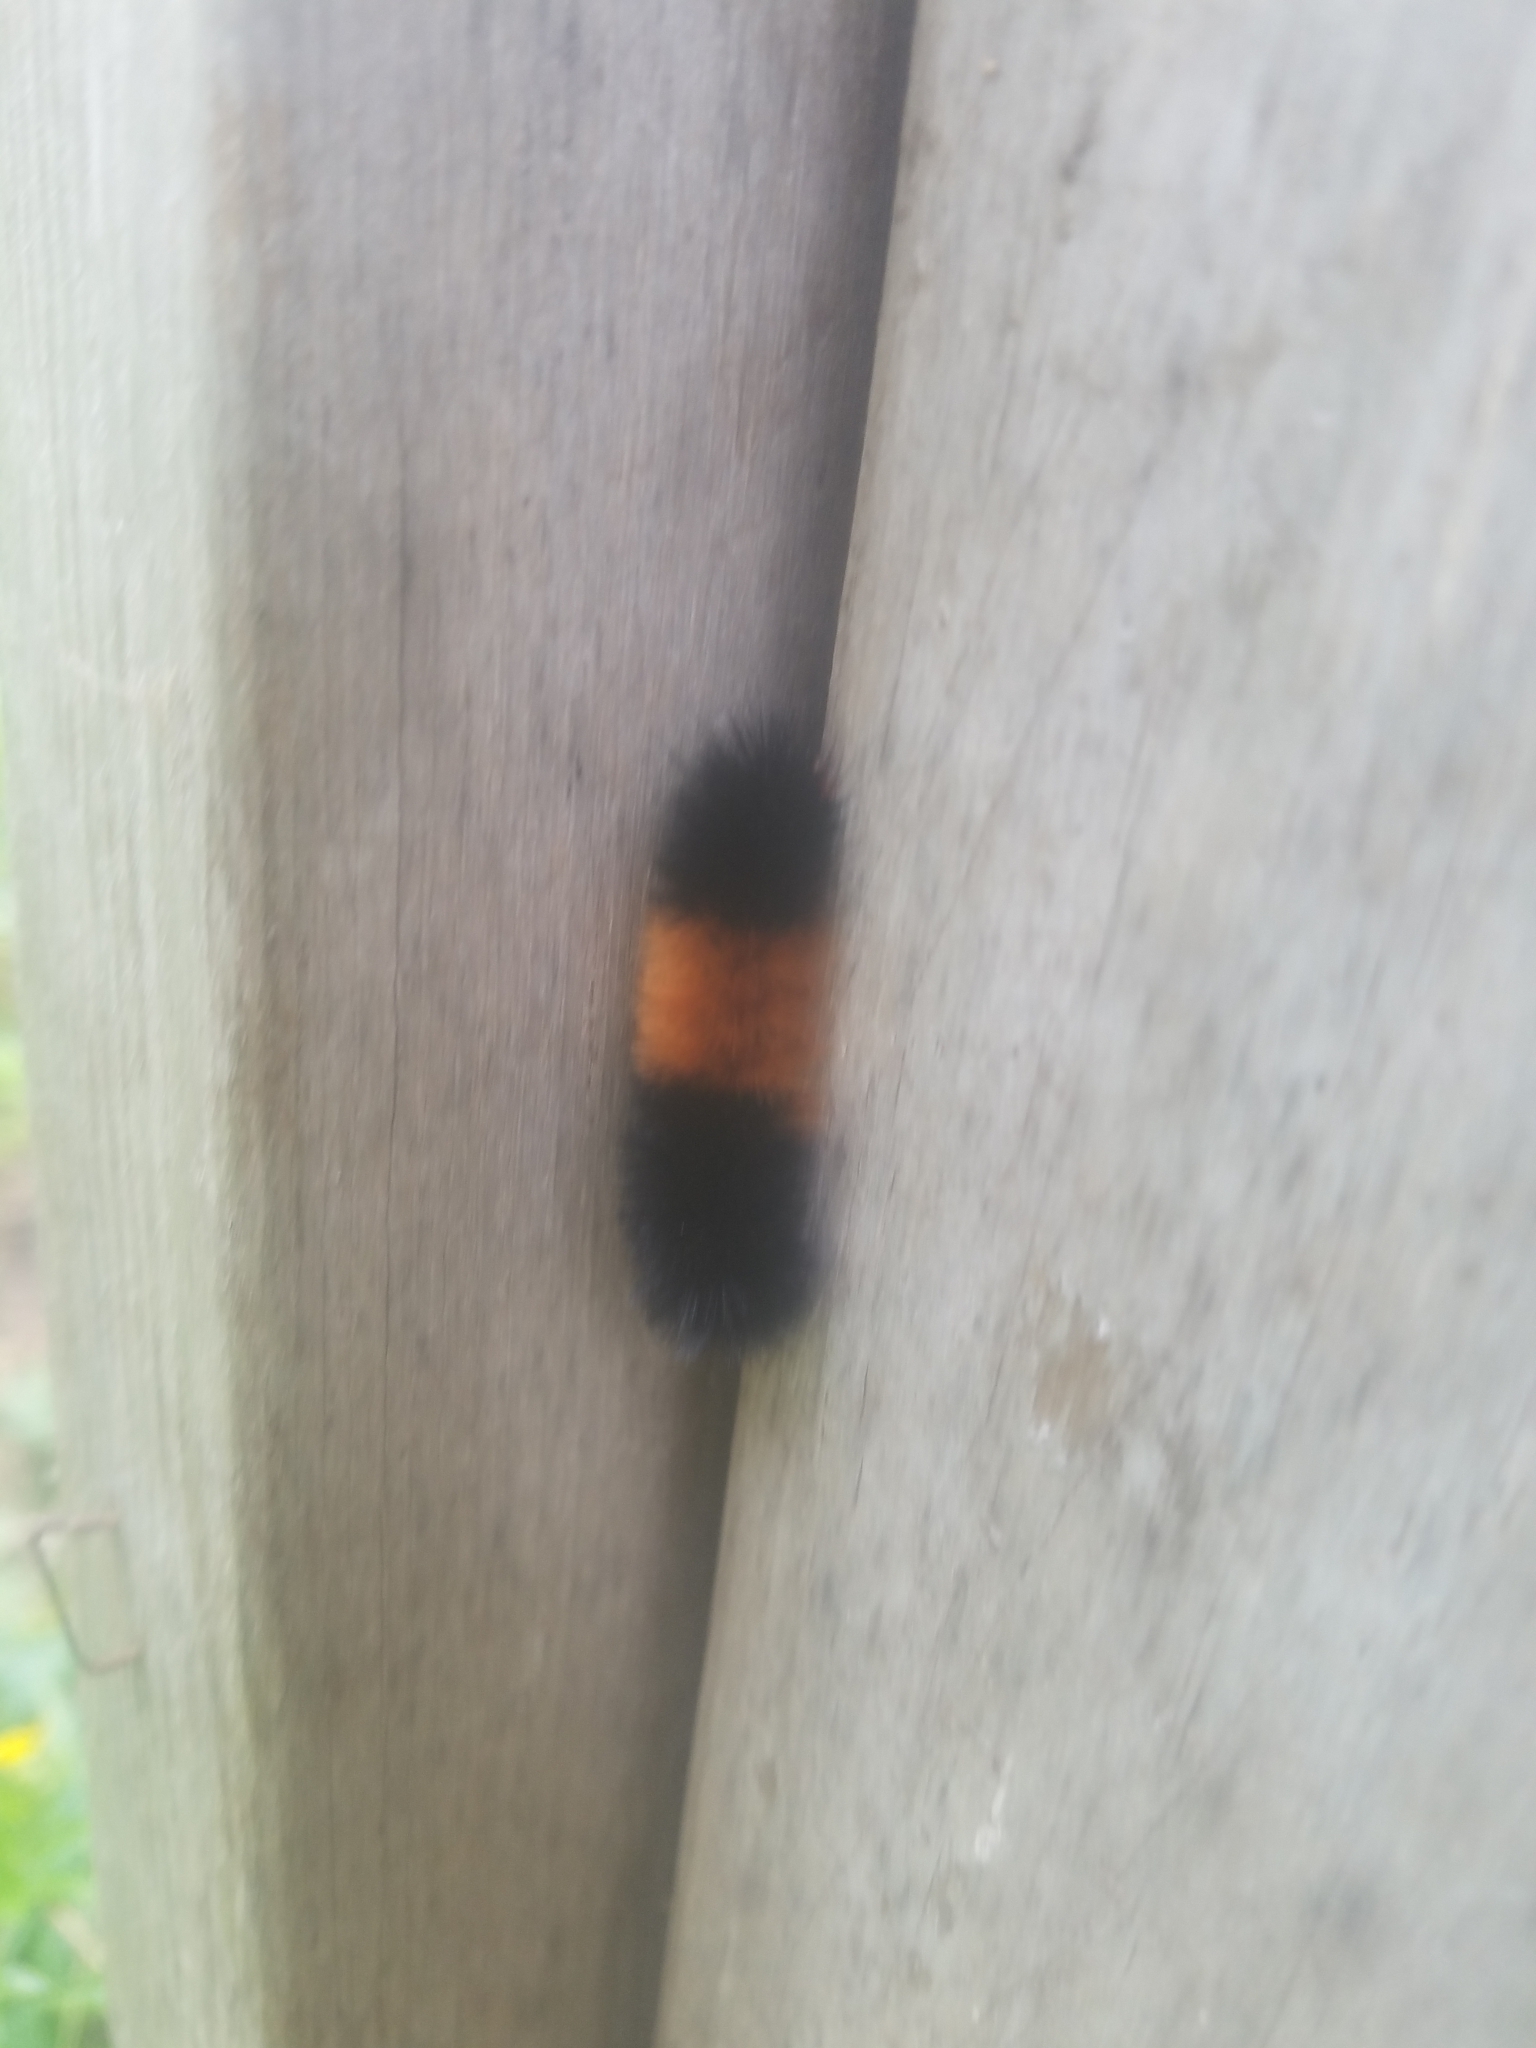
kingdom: Animalia
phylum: Arthropoda
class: Insecta
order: Lepidoptera
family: Erebidae
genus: Pyrrharctia
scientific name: Pyrrharctia isabella
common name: Isabella tiger moth
